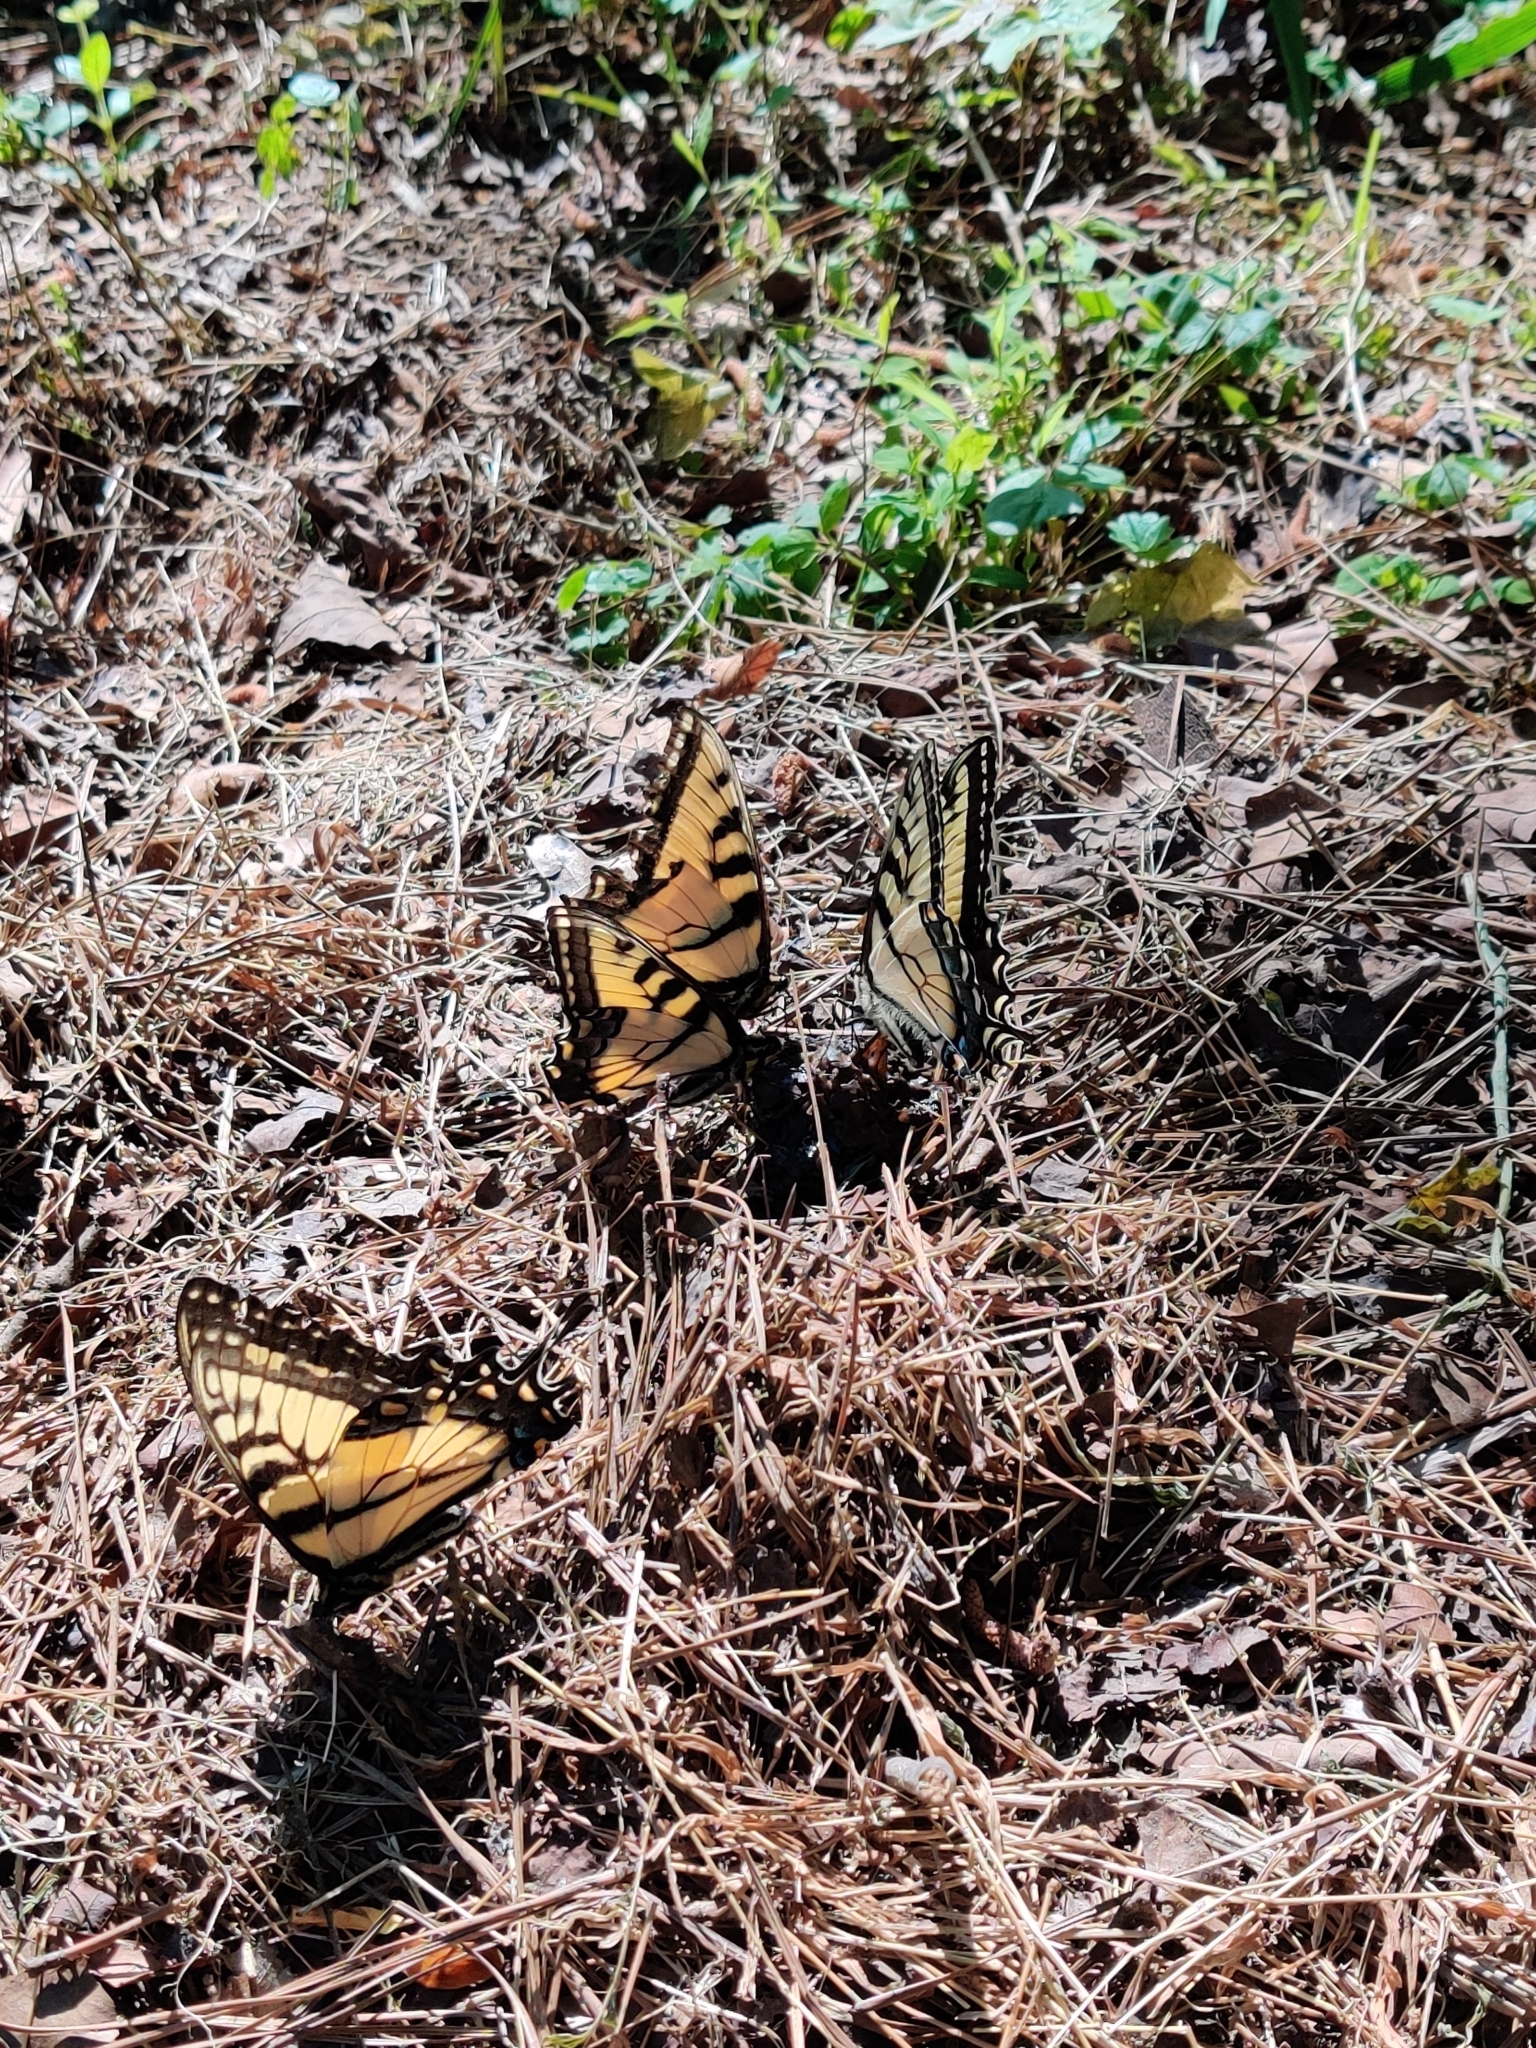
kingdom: Animalia
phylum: Arthropoda
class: Insecta
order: Lepidoptera
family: Papilionidae
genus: Papilio
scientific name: Papilio glaucus
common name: Tiger swallowtail
